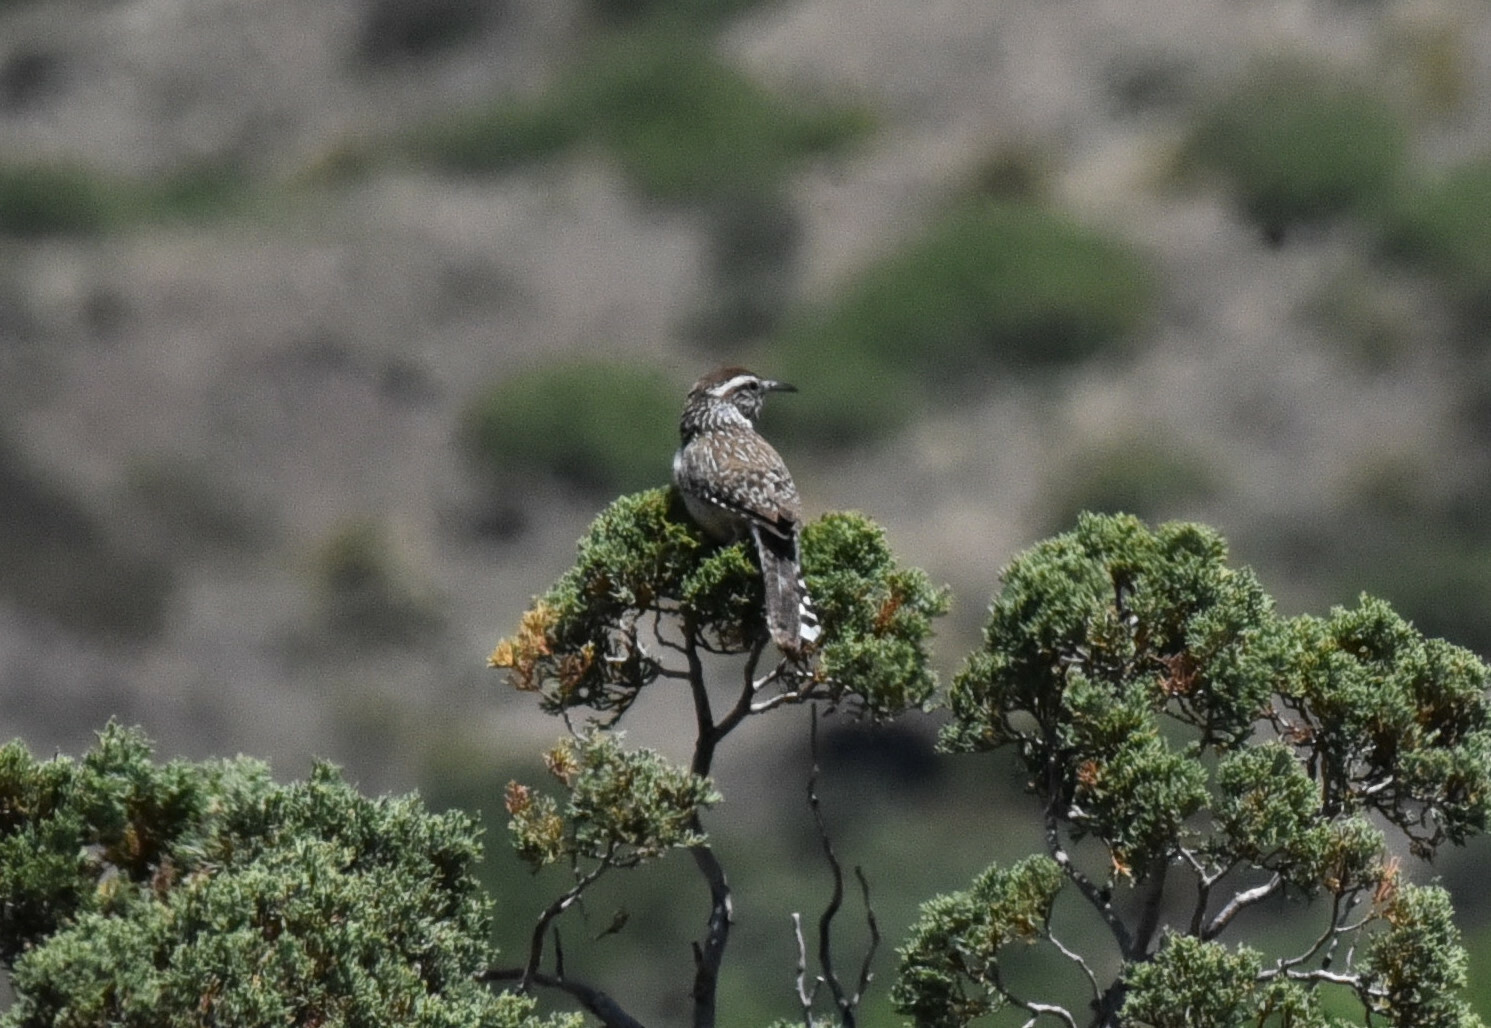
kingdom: Animalia
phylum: Chordata
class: Aves
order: Passeriformes
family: Troglodytidae
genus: Campylorhynchus
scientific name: Campylorhynchus brunneicapillus
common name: Cactus wren
